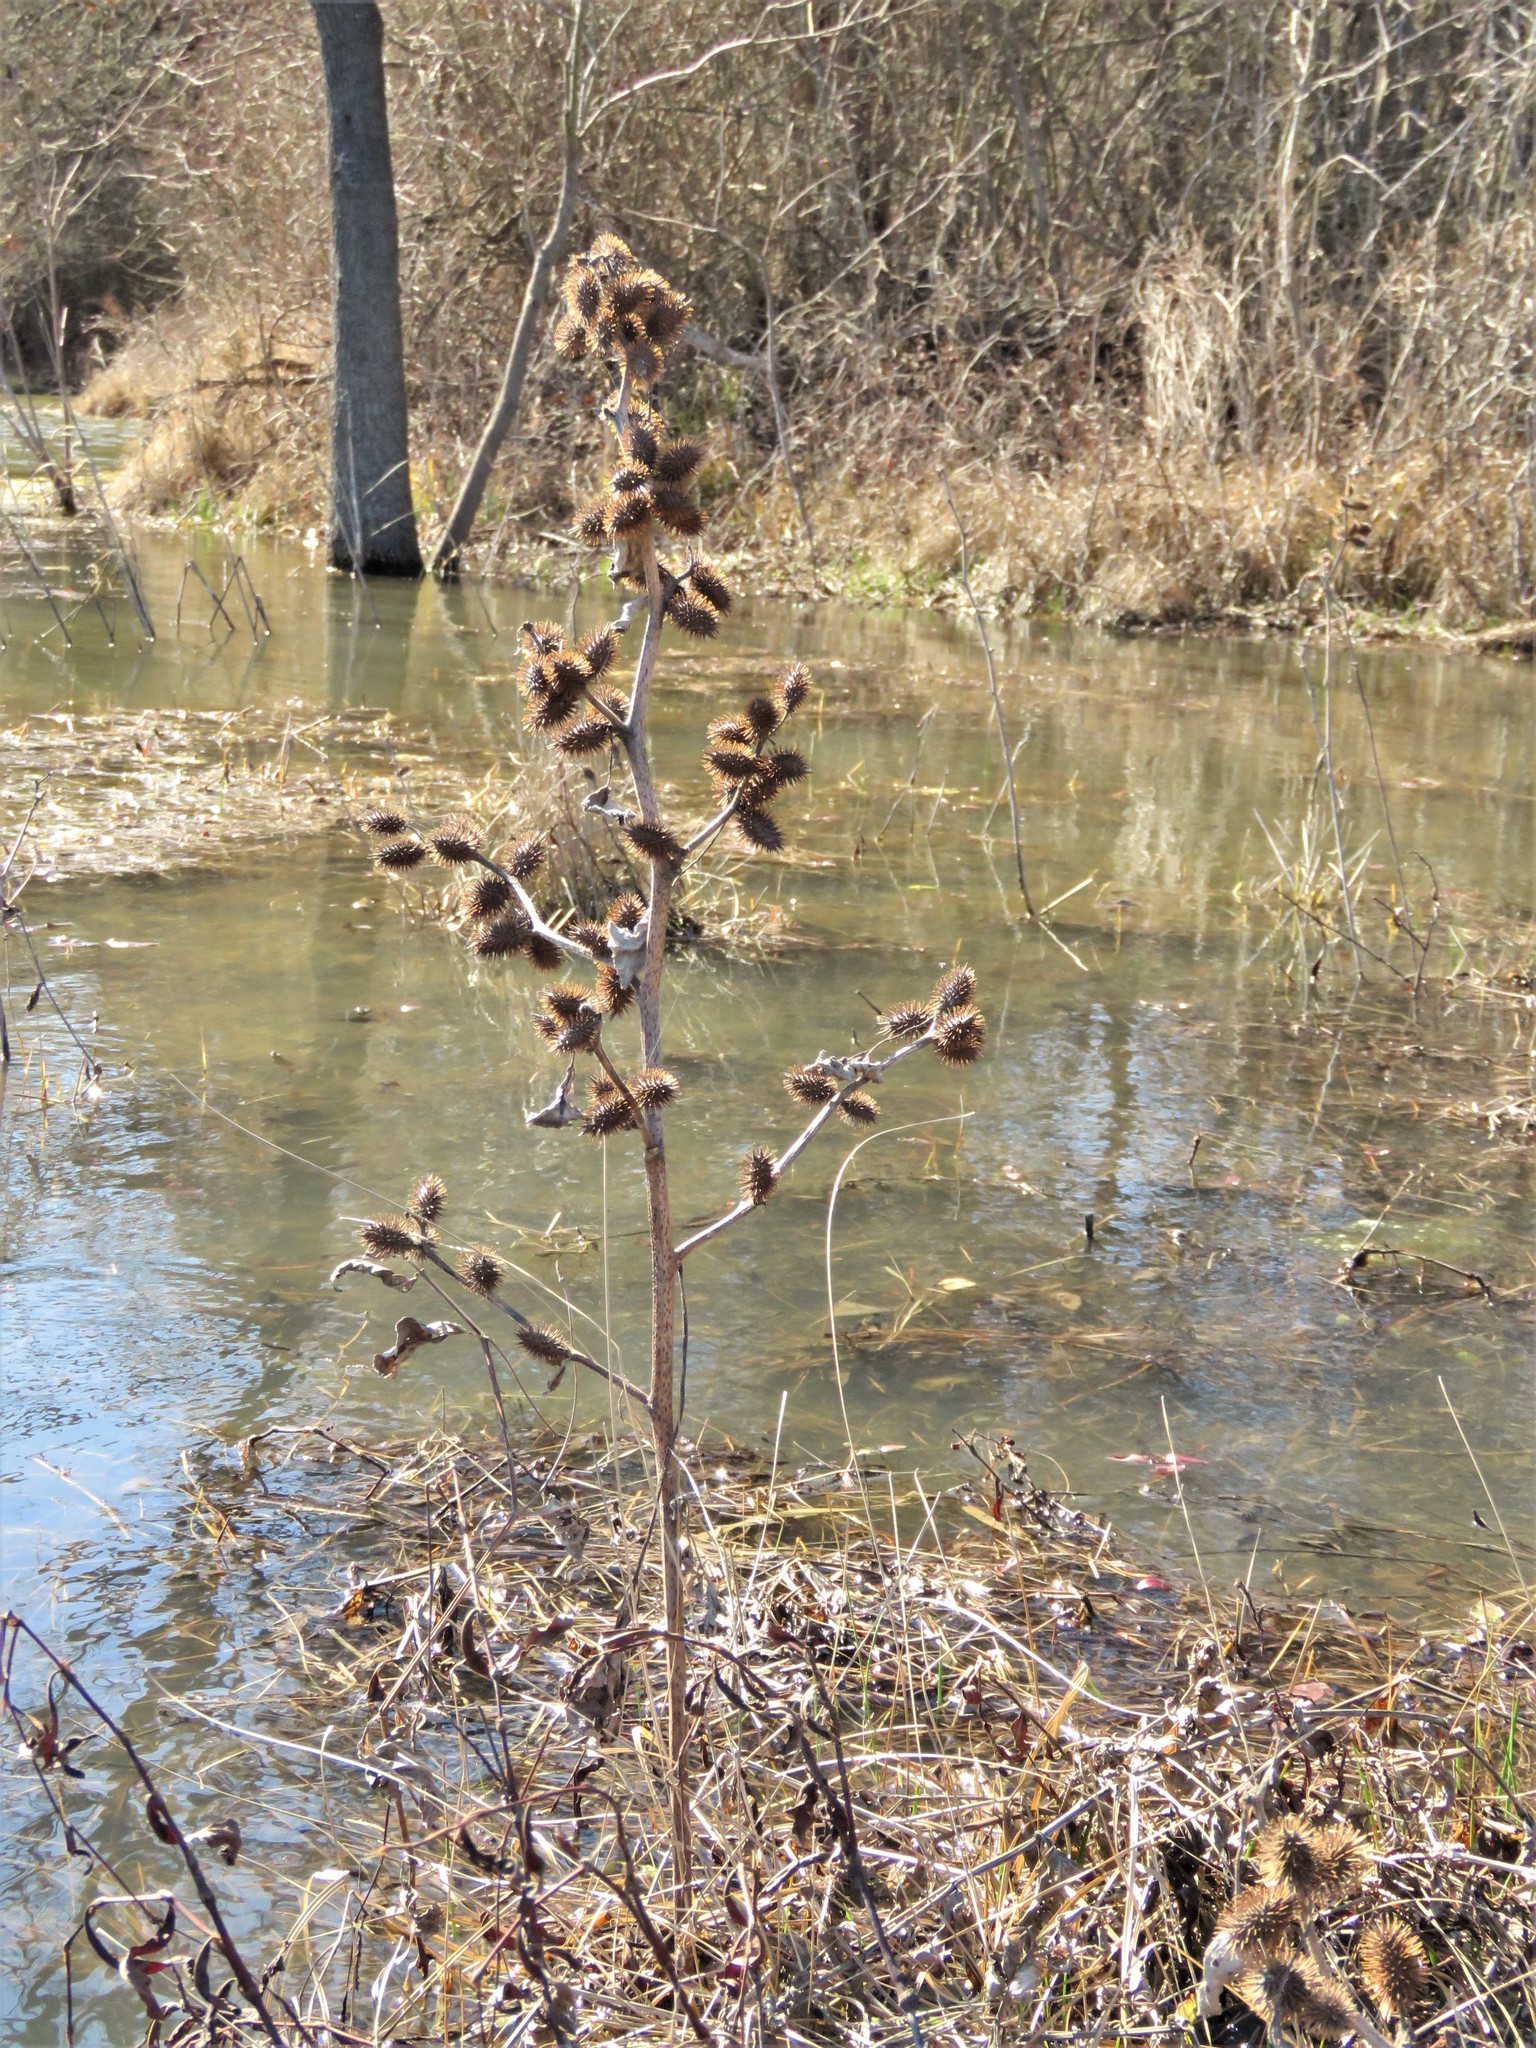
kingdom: Plantae
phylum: Tracheophyta
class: Magnoliopsida
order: Asterales
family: Asteraceae
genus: Xanthium
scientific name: Xanthium strumarium
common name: Rough cocklebur
